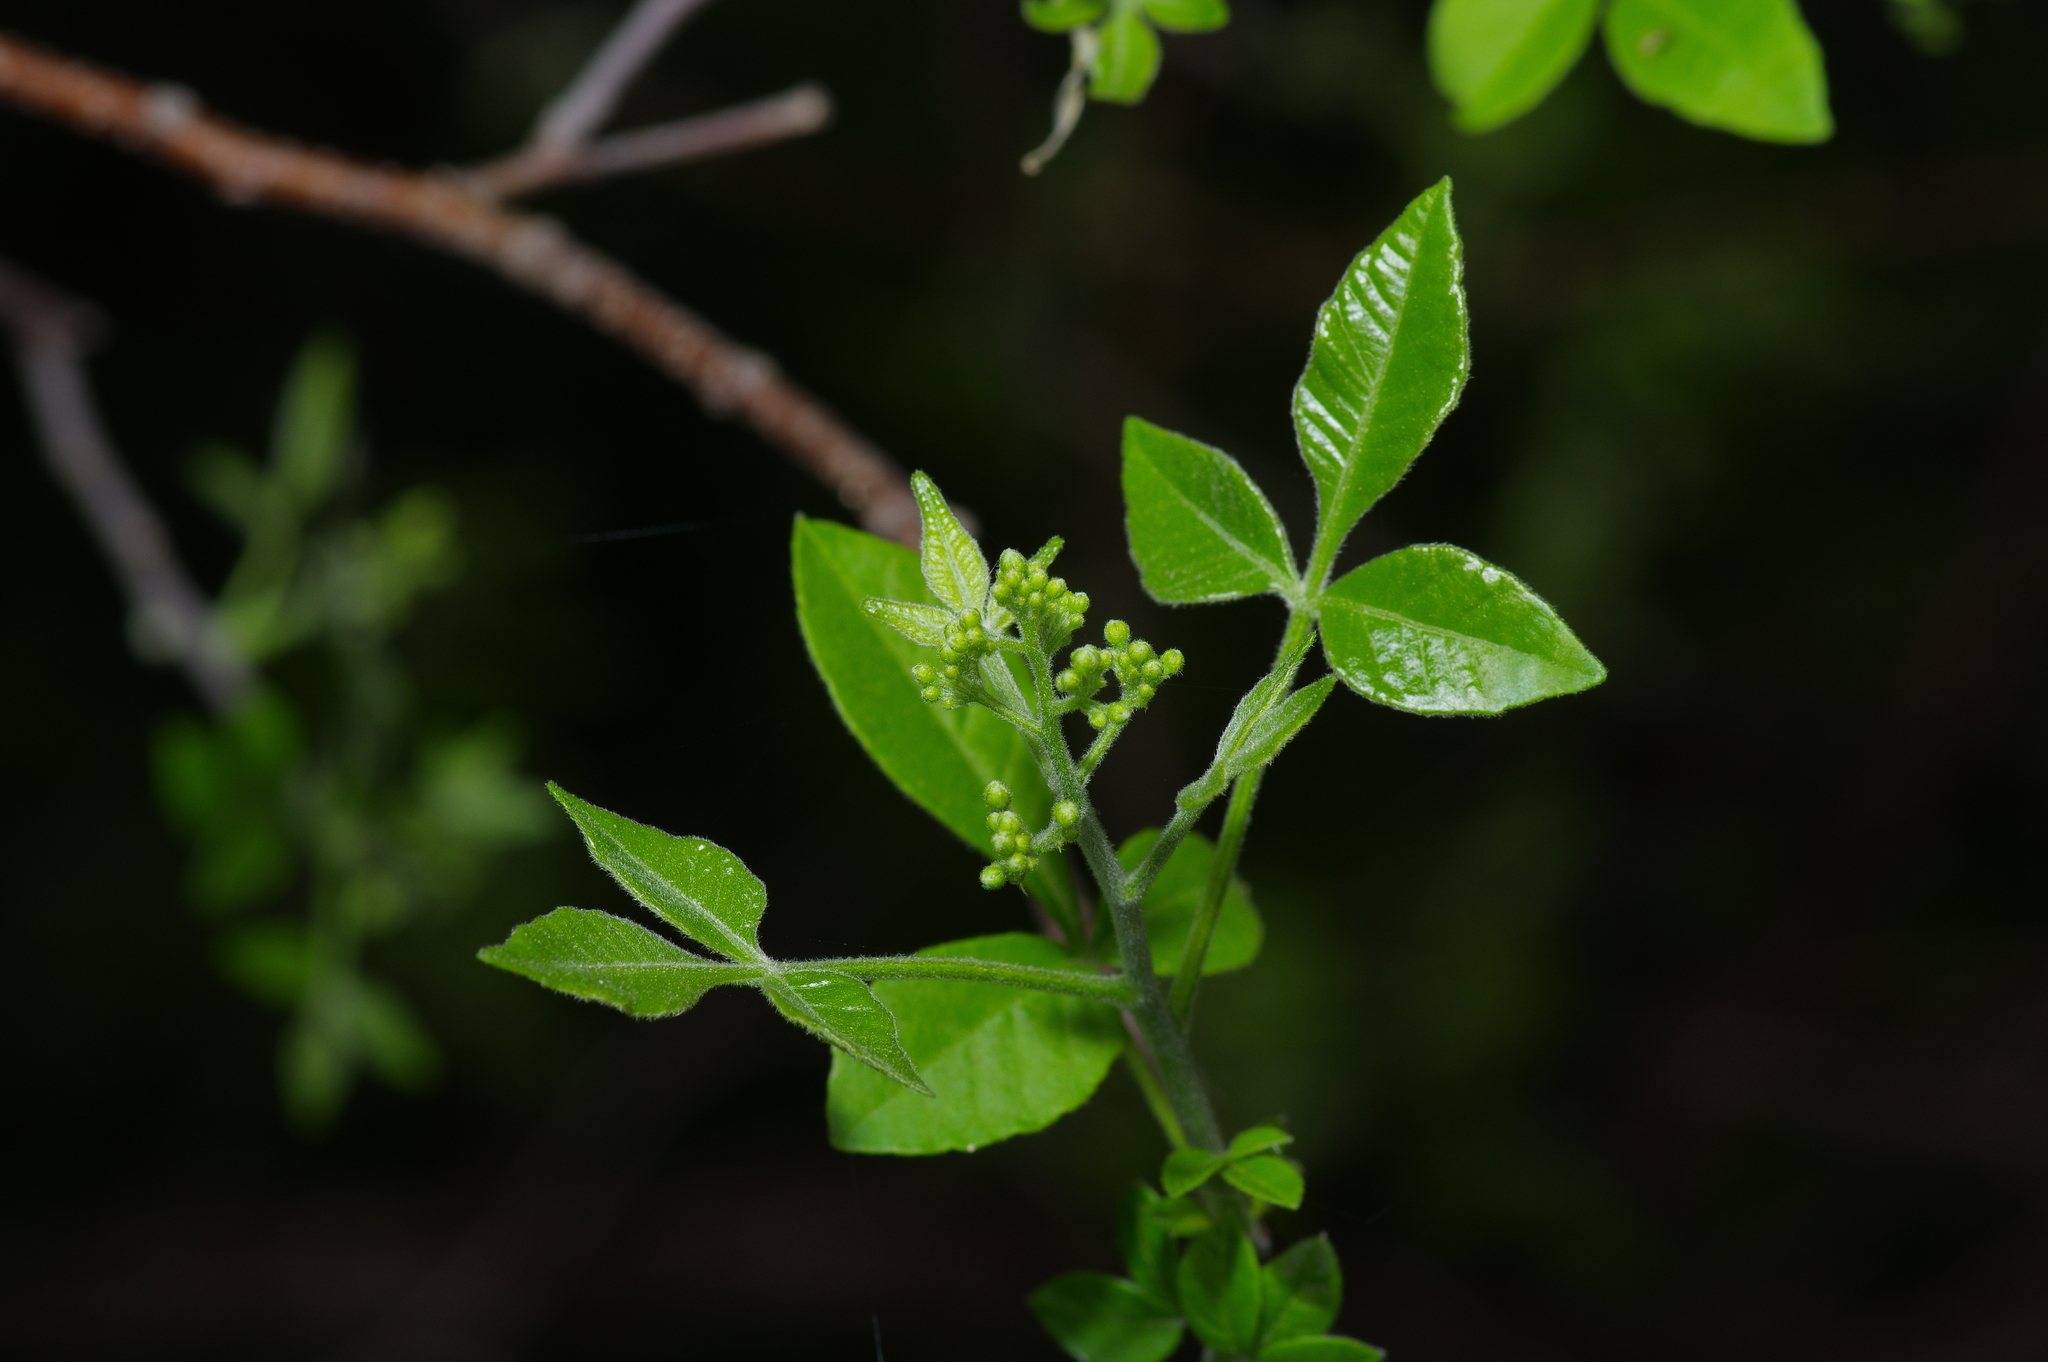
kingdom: Plantae
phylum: Tracheophyta
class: Magnoliopsida
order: Sapindales
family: Rutaceae
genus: Ptelea
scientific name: Ptelea trifoliata
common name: Common hop-tree
